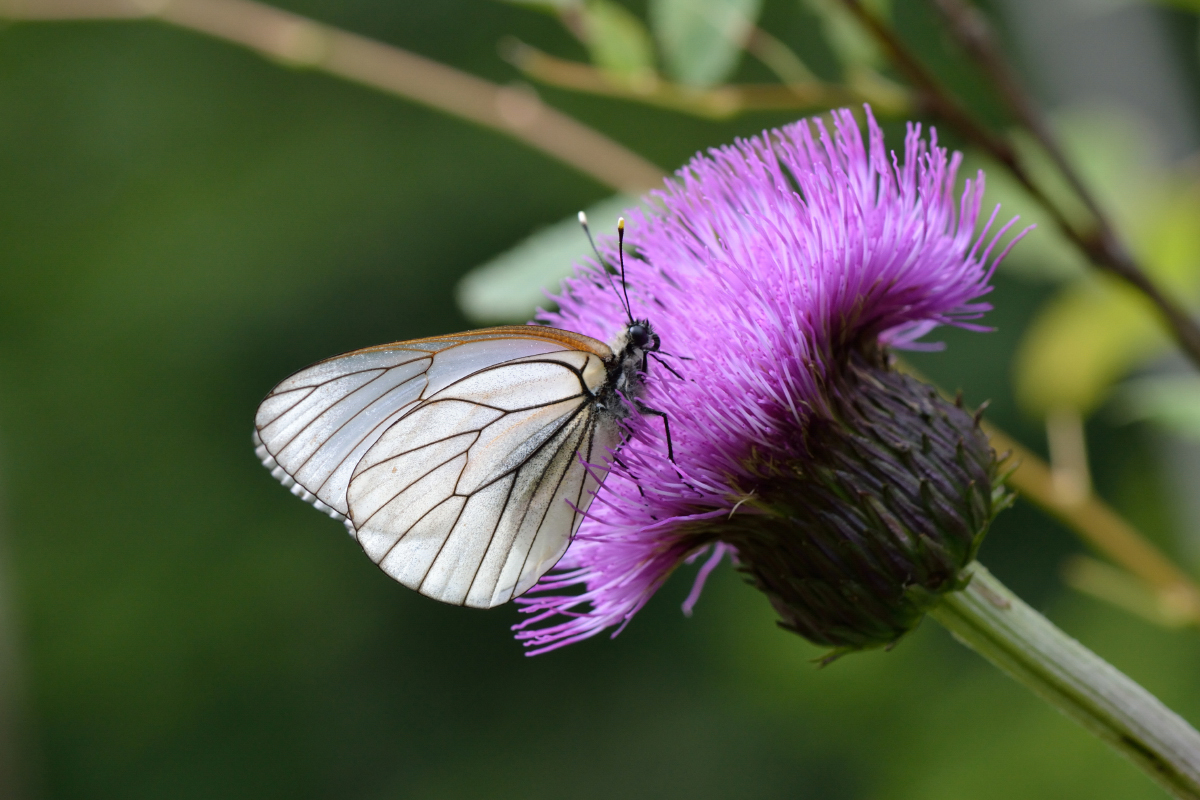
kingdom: Animalia
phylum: Arthropoda
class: Insecta
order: Lepidoptera
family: Pieridae
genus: Aporia
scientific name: Aporia crataegi
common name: Black-veined white
